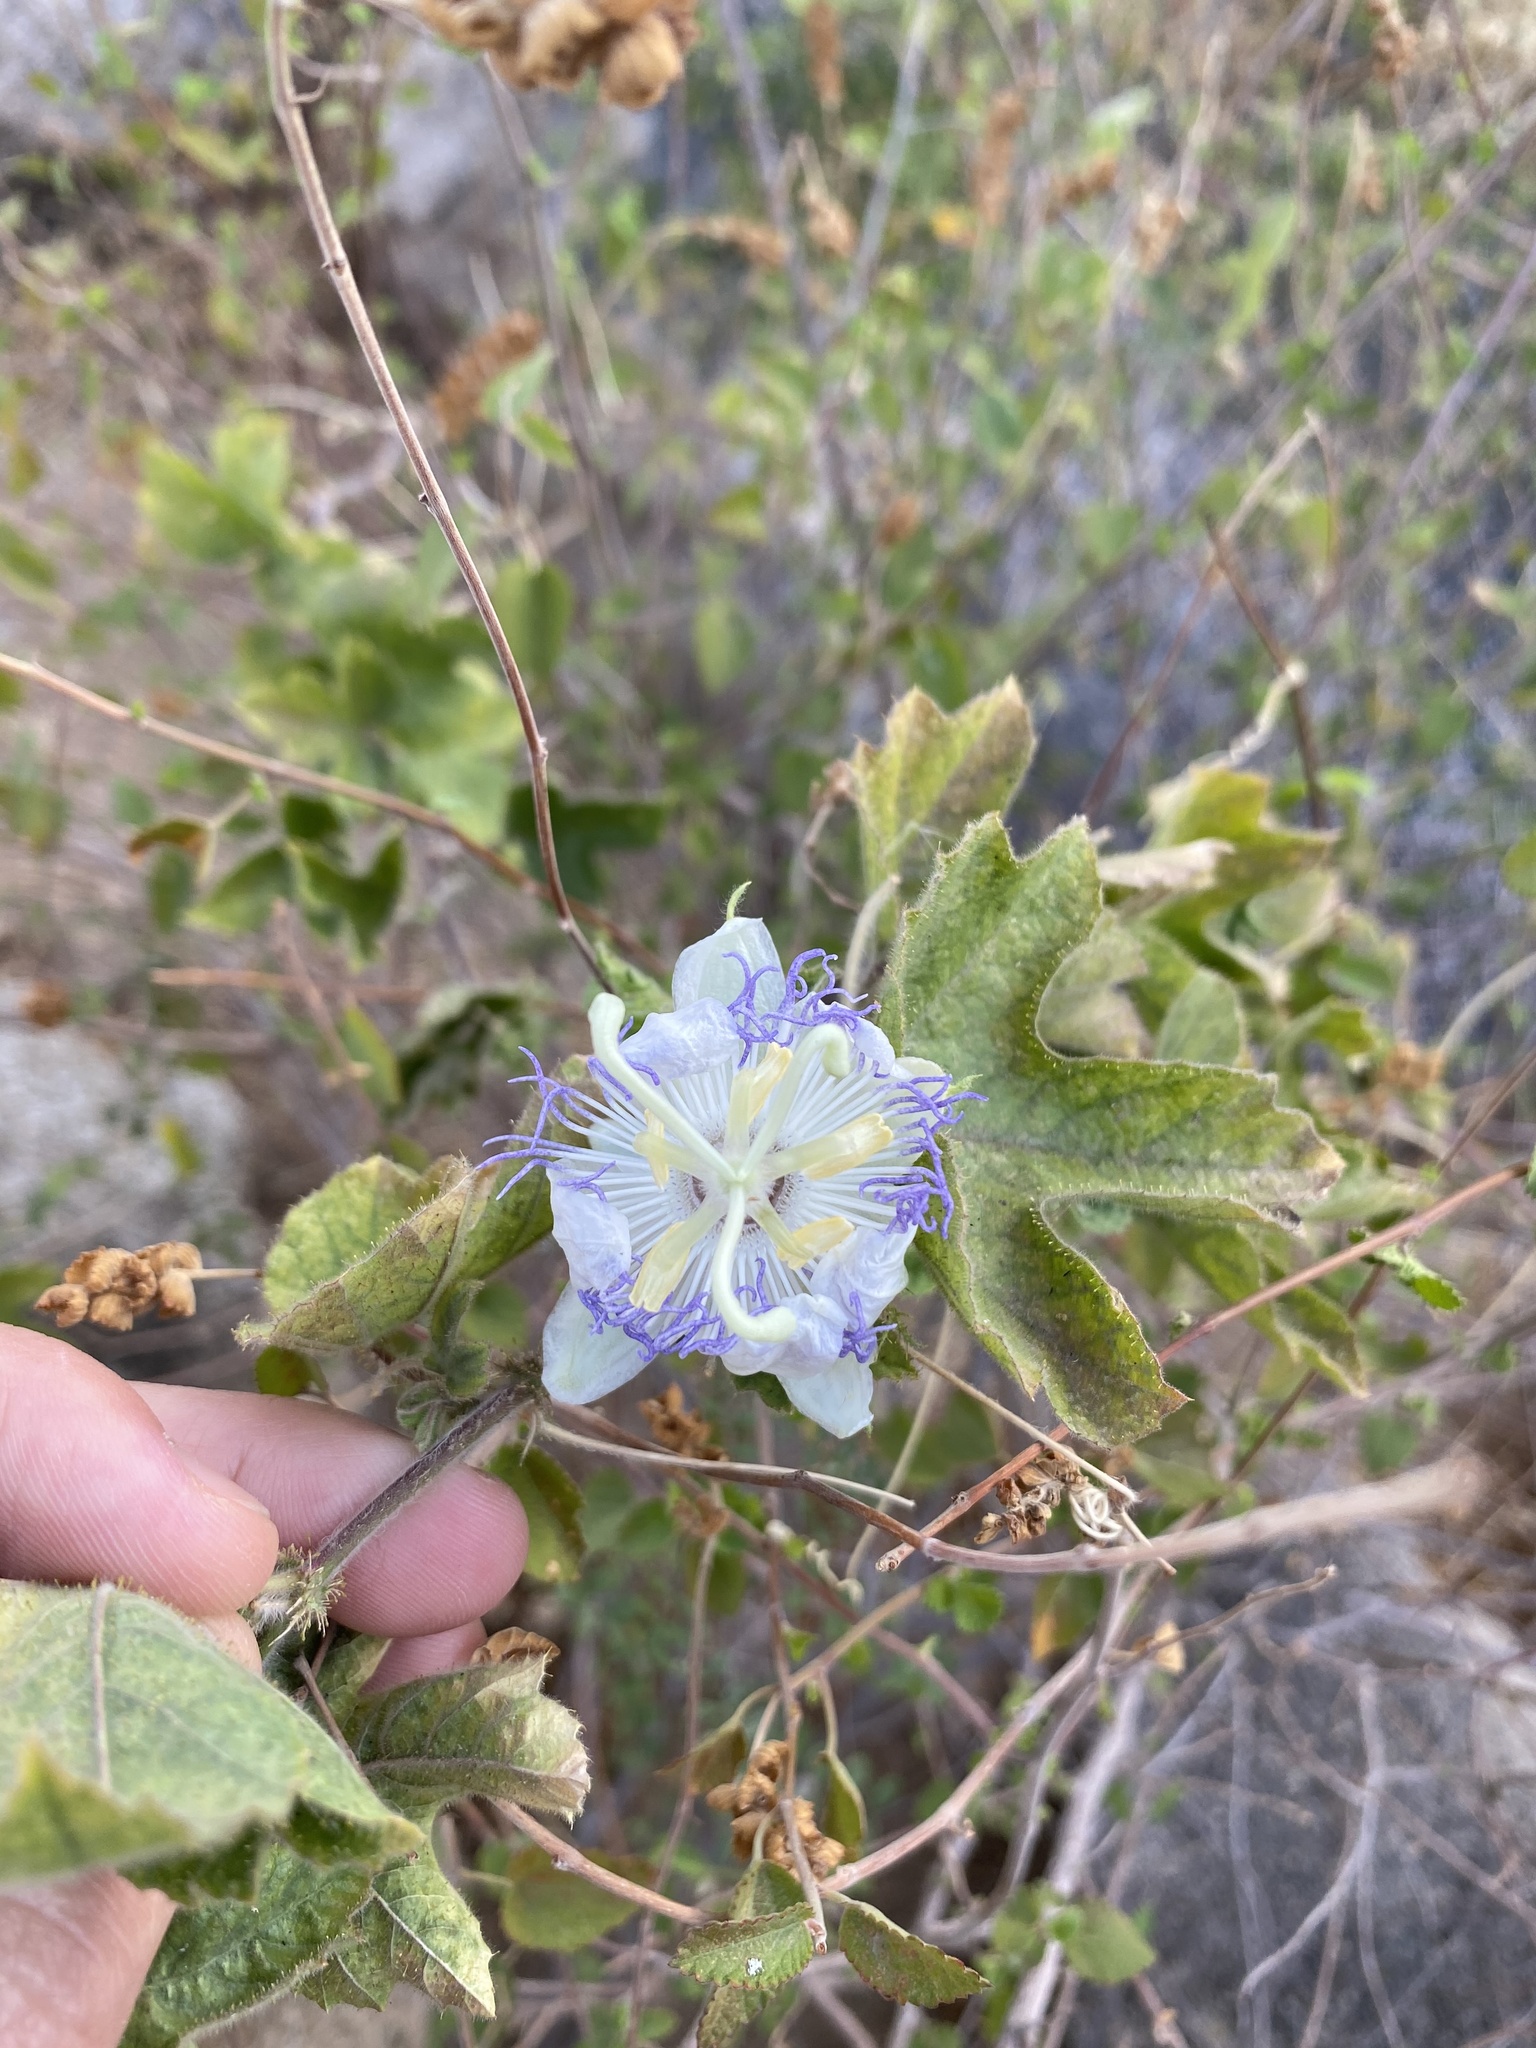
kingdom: Plantae
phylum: Tracheophyta
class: Magnoliopsida
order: Malpighiales
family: Passifloraceae
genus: Passiflora
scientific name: Passiflora arizonica
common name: Arizona passionflower
